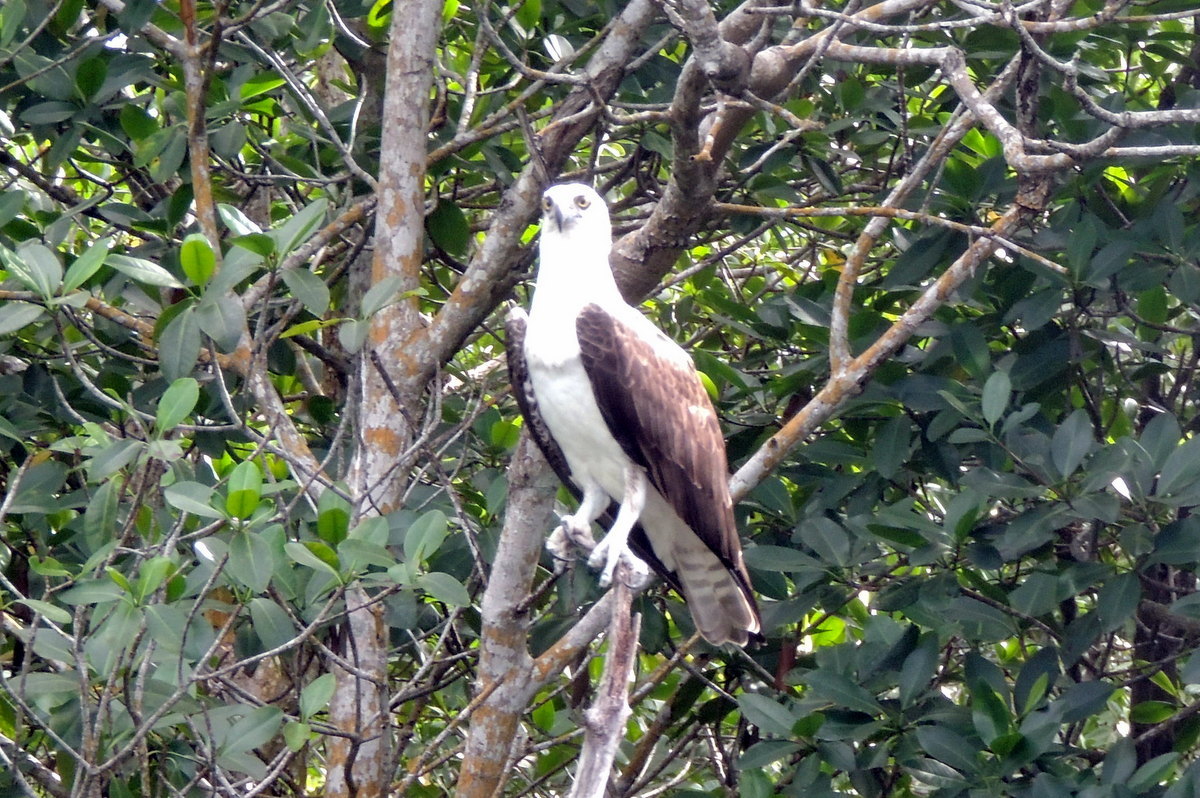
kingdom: Animalia
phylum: Chordata
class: Aves
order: Accipitriformes
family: Pandionidae
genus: Pandion
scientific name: Pandion haliaetus
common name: Osprey
